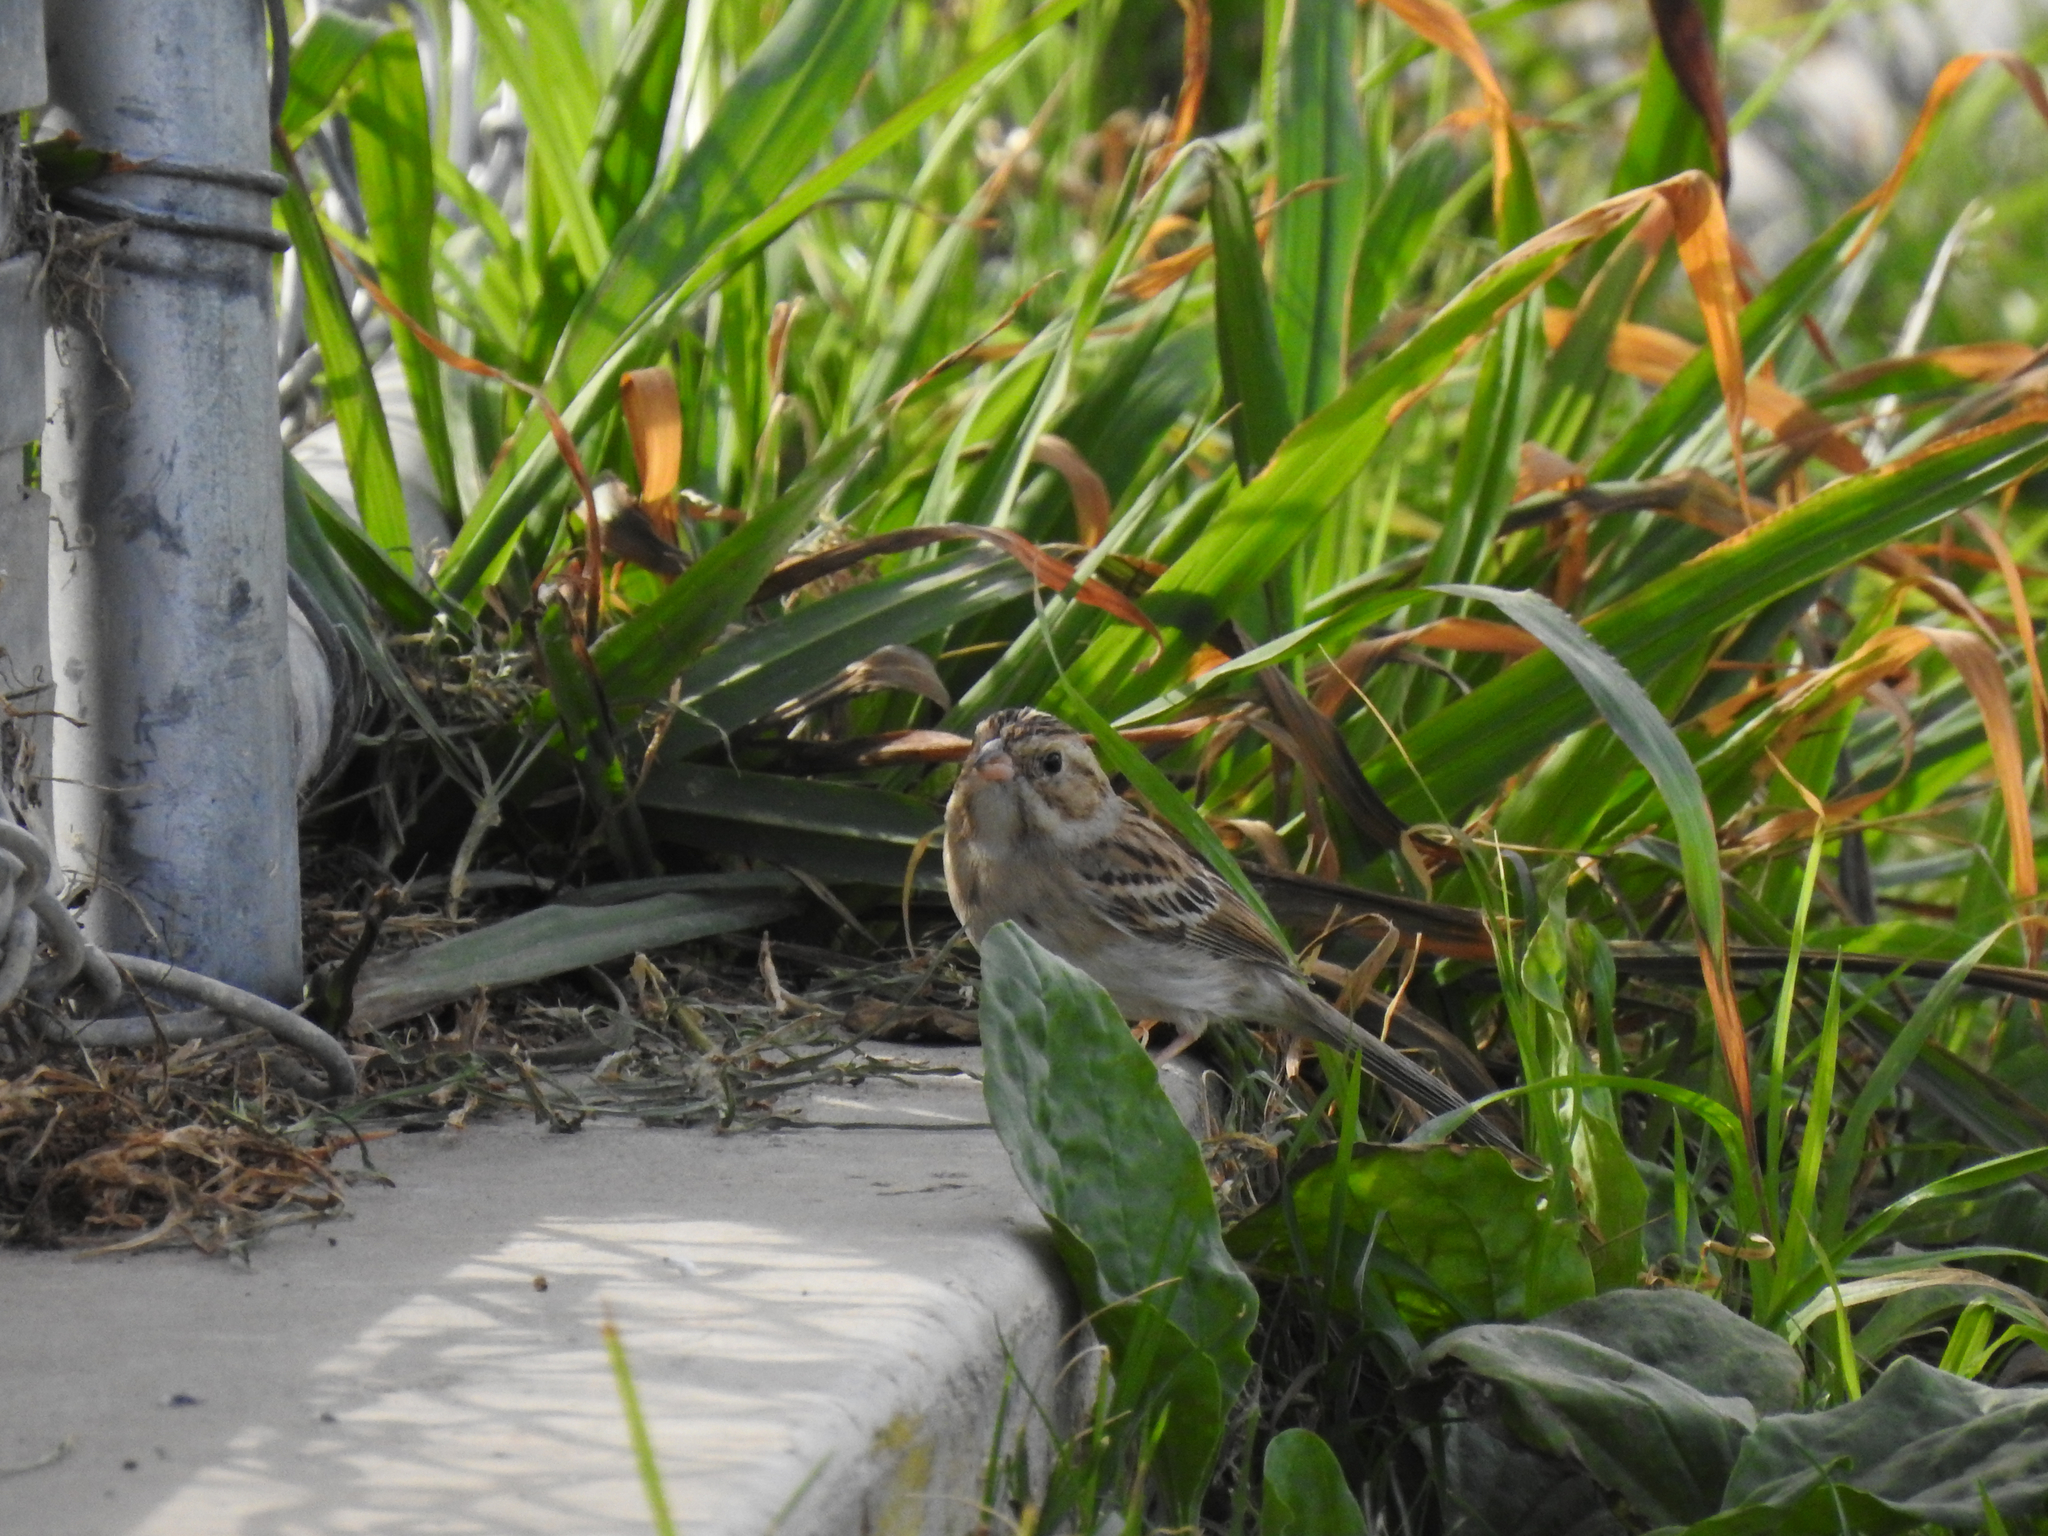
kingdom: Animalia
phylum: Chordata
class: Aves
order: Passeriformes
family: Passerellidae
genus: Spizella
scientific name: Spizella pallida
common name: Clay-colored sparrow
